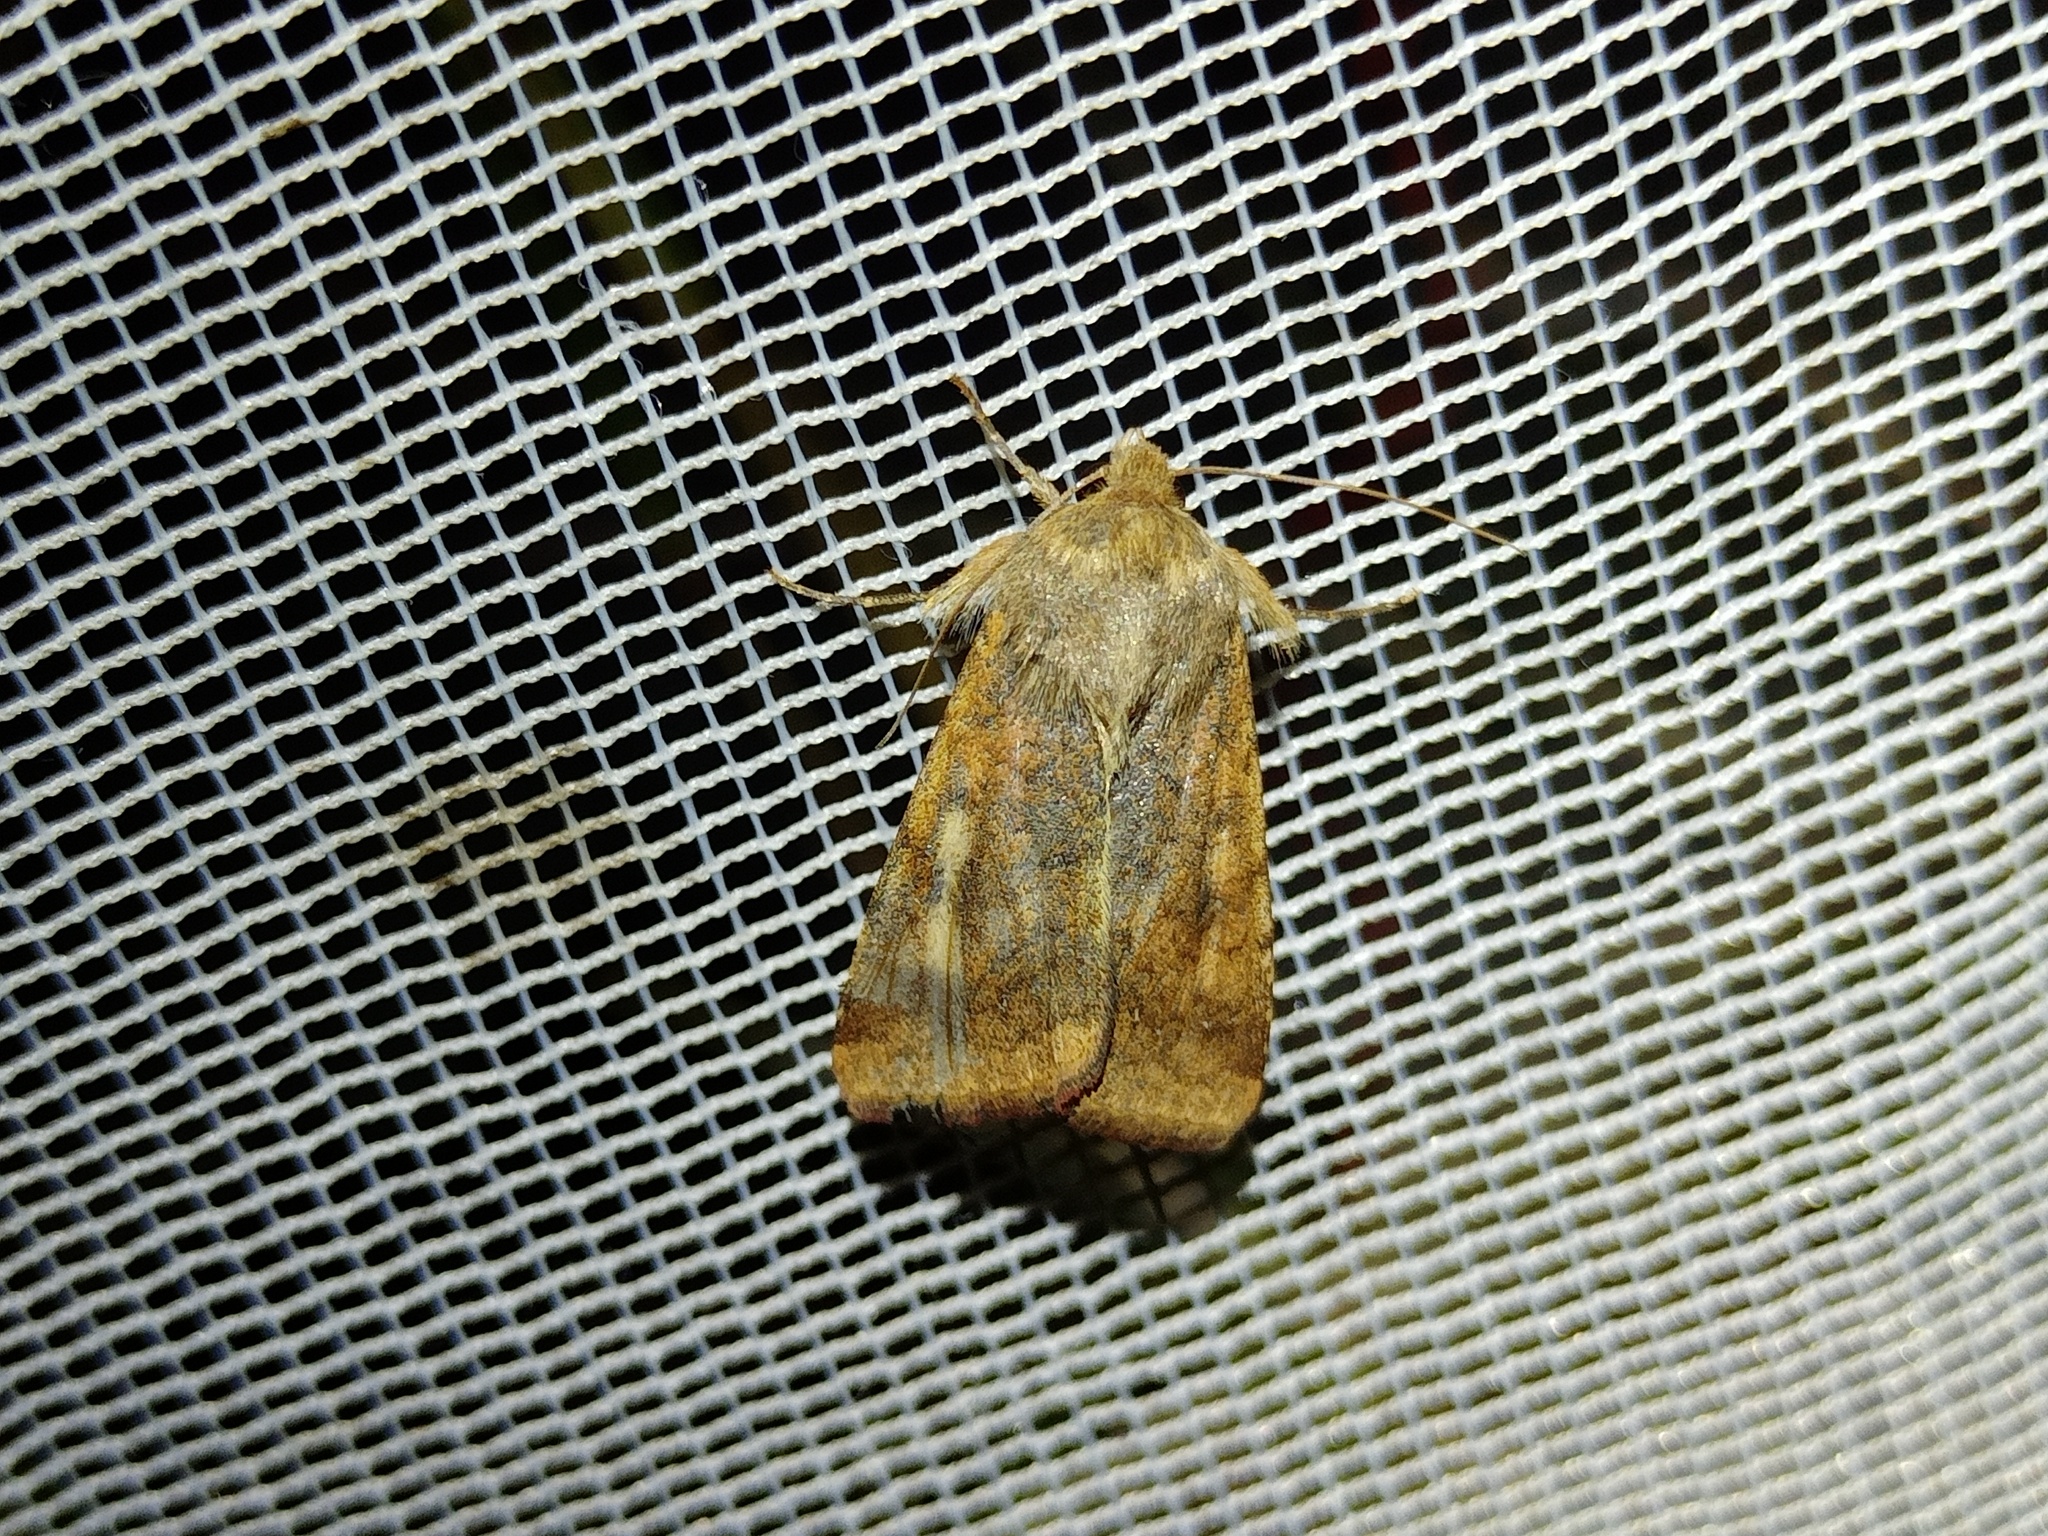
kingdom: Animalia
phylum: Arthropoda
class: Insecta
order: Lepidoptera
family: Noctuidae
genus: Helicoverpa
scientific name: Helicoverpa armigera
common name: Cotton bollworm
